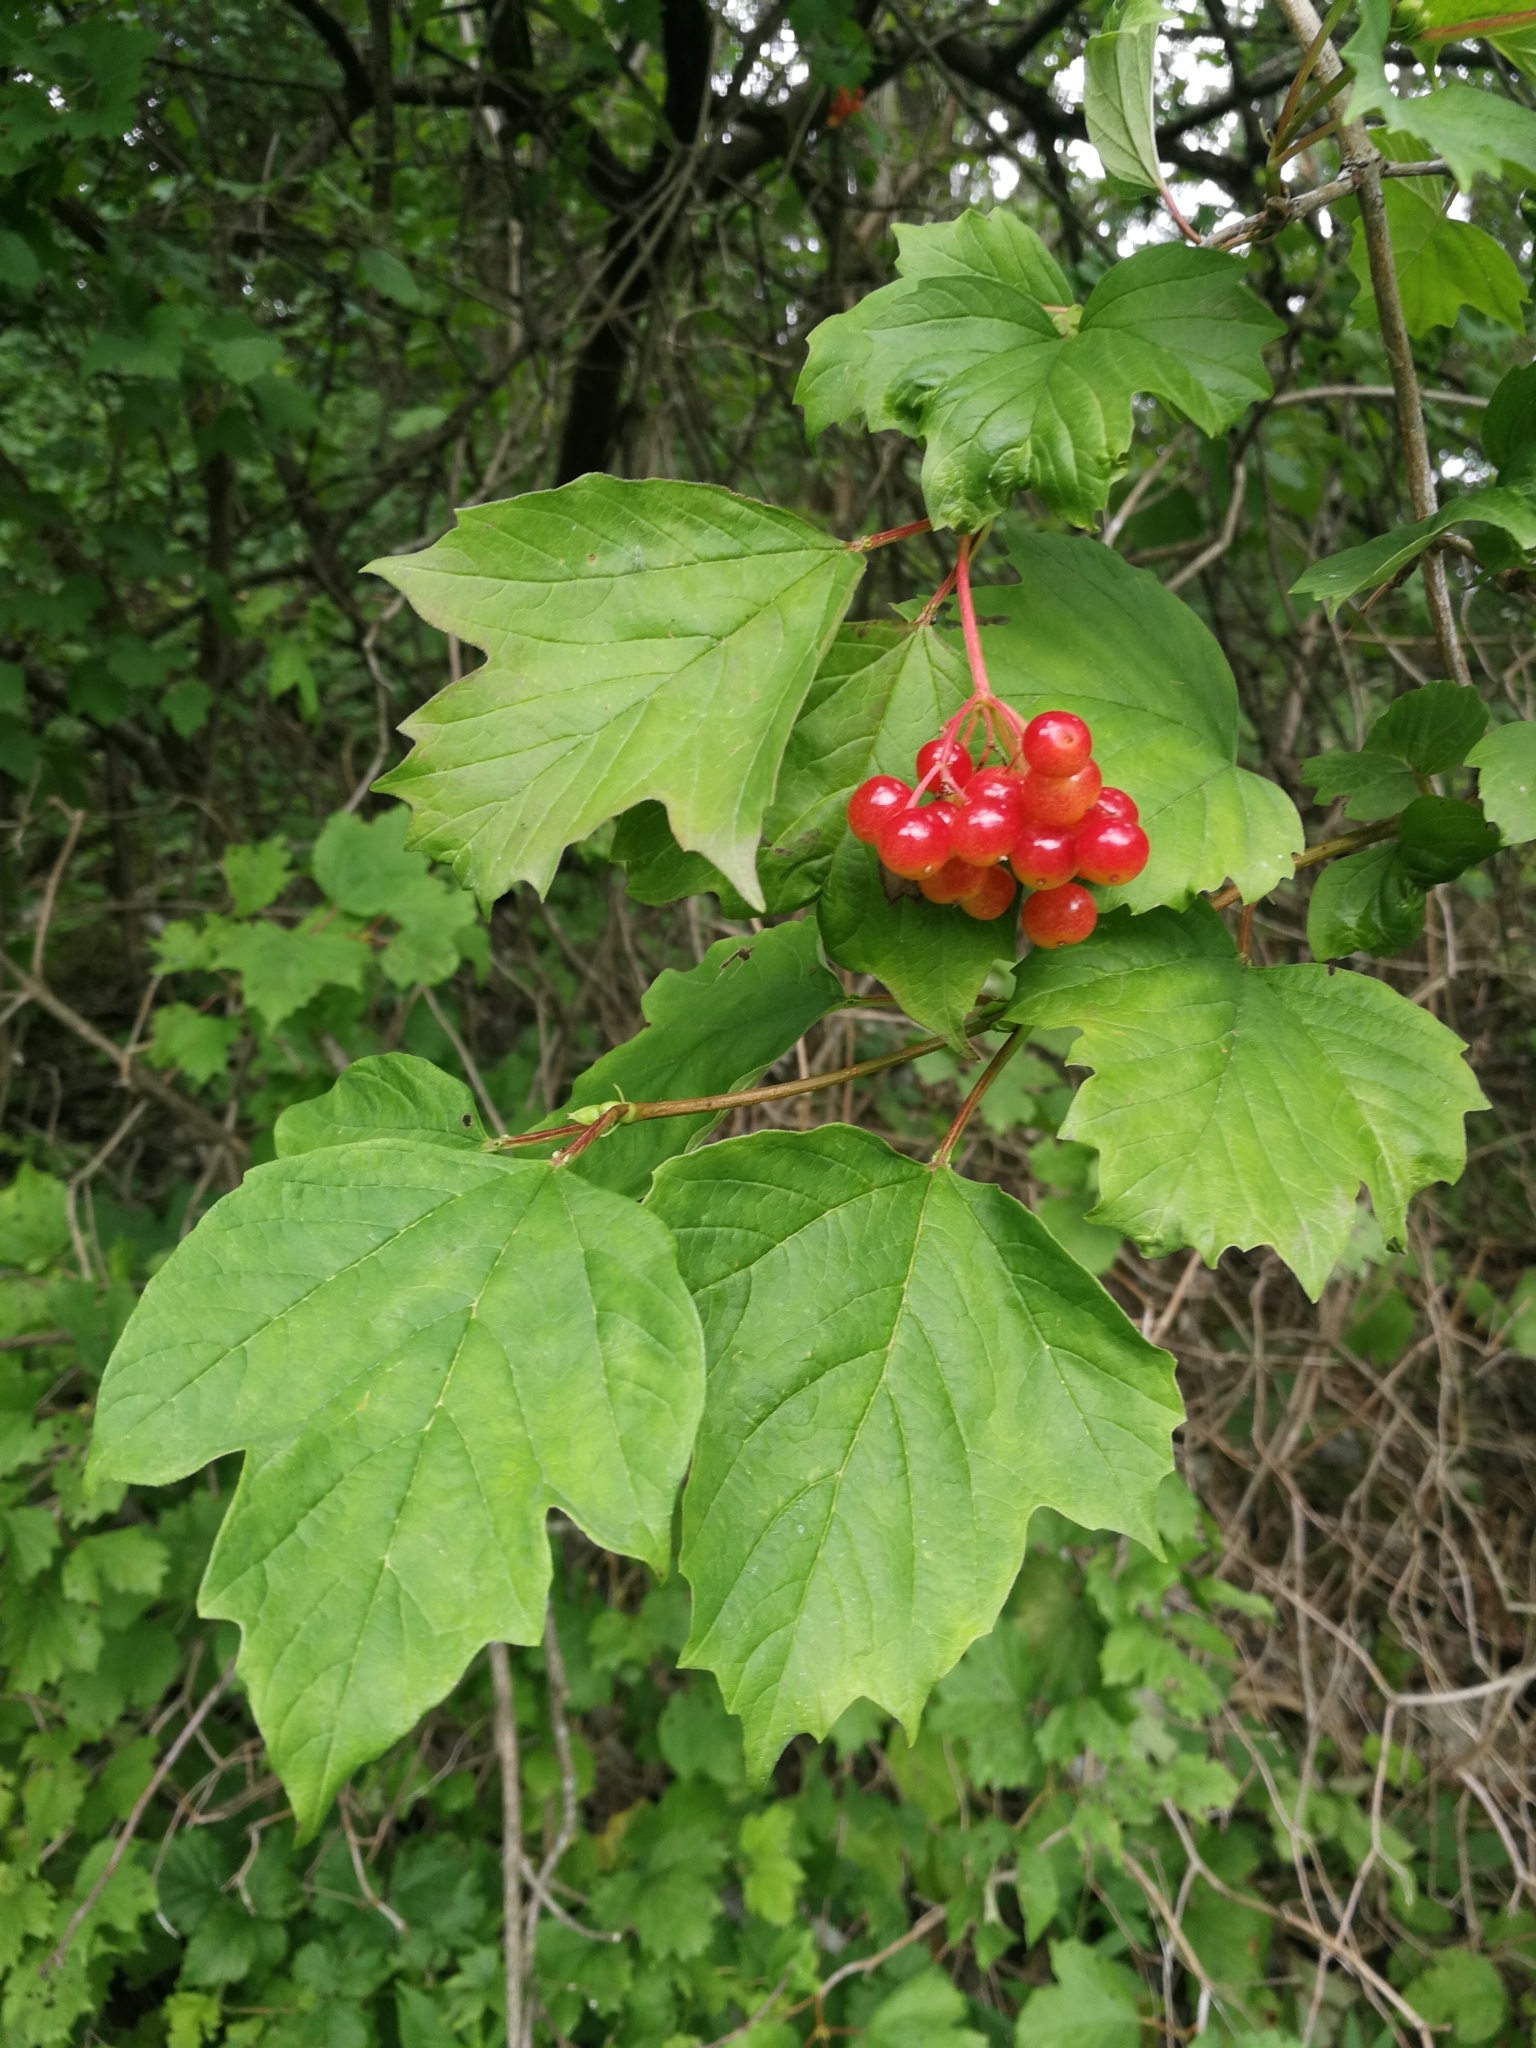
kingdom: Plantae
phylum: Tracheophyta
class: Magnoliopsida
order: Dipsacales
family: Viburnaceae
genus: Viburnum
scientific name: Viburnum opulus
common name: Guelder-rose
